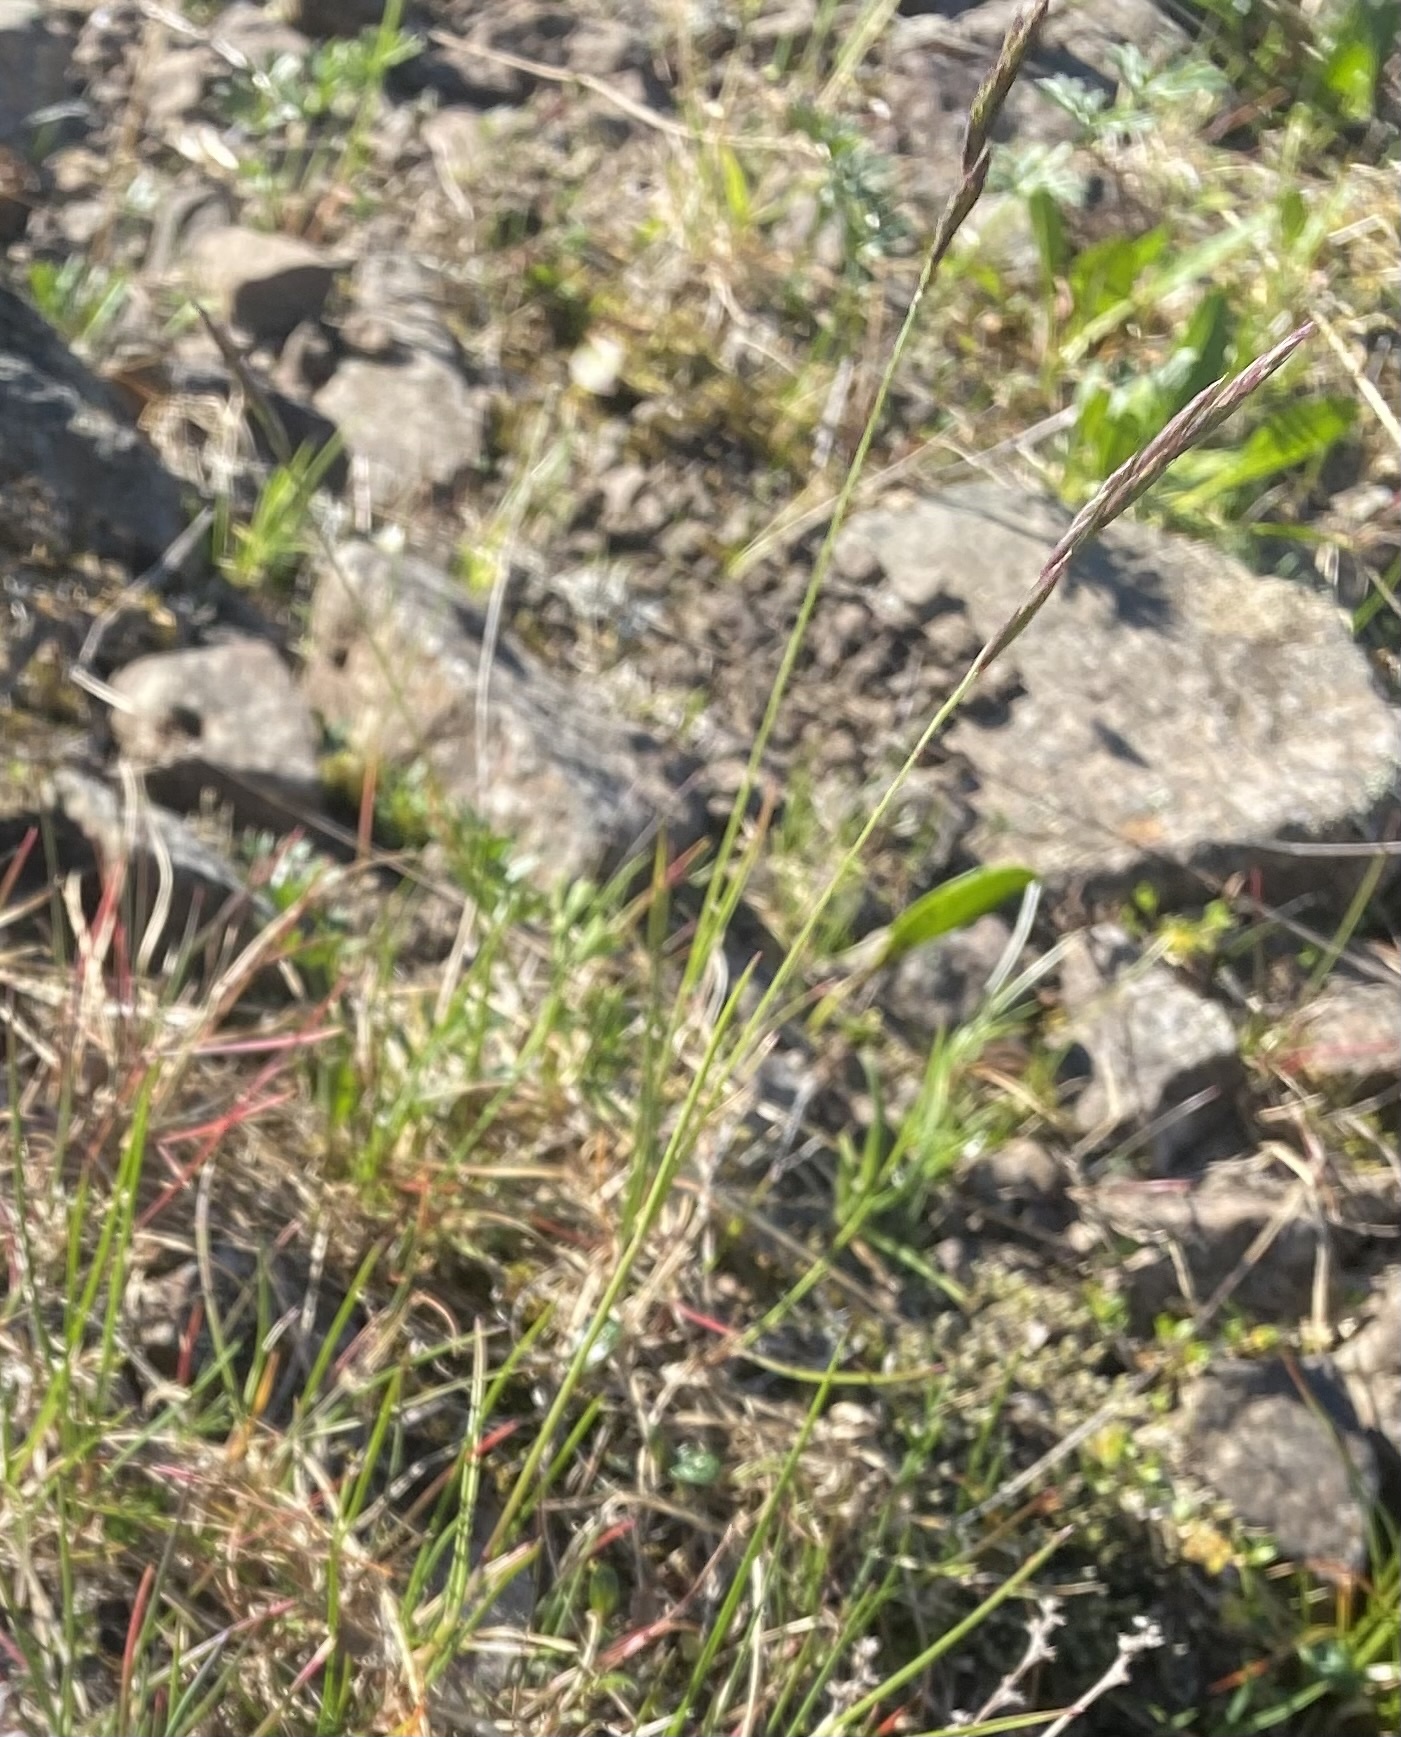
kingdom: Plantae
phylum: Tracheophyta
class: Liliopsida
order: Poales
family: Poaceae
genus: Festuca
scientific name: Festuca rubra
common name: Red fescue
